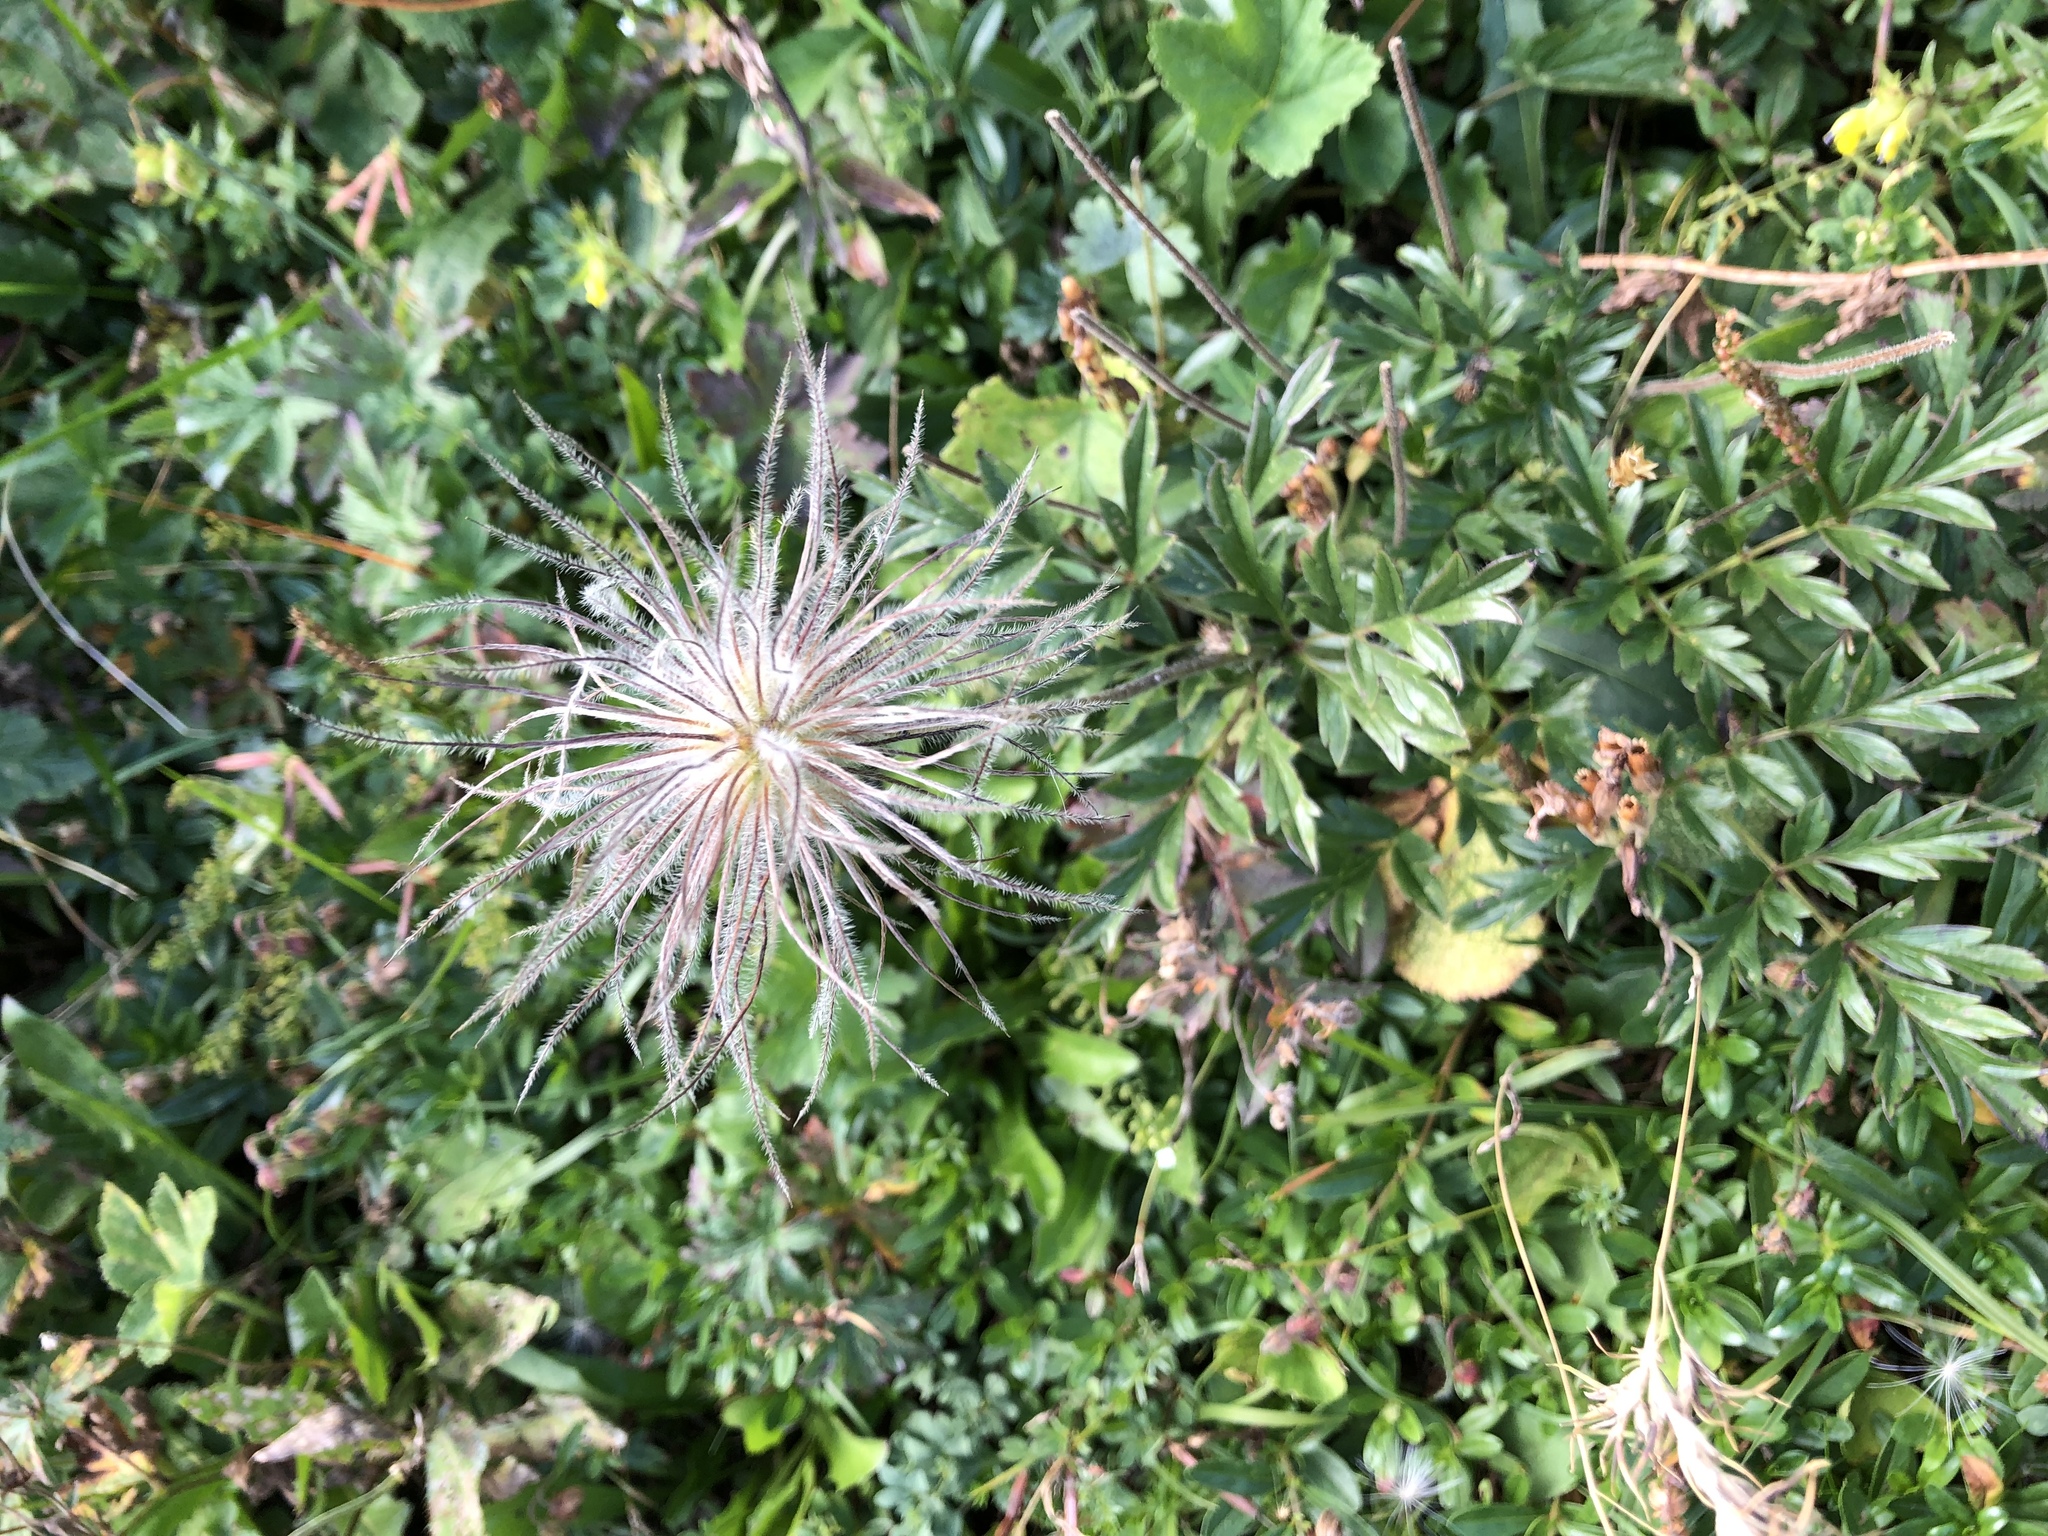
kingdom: Plantae
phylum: Tracheophyta
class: Magnoliopsida
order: Ranunculales
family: Ranunculaceae
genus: Pulsatilla
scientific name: Pulsatilla alpina
